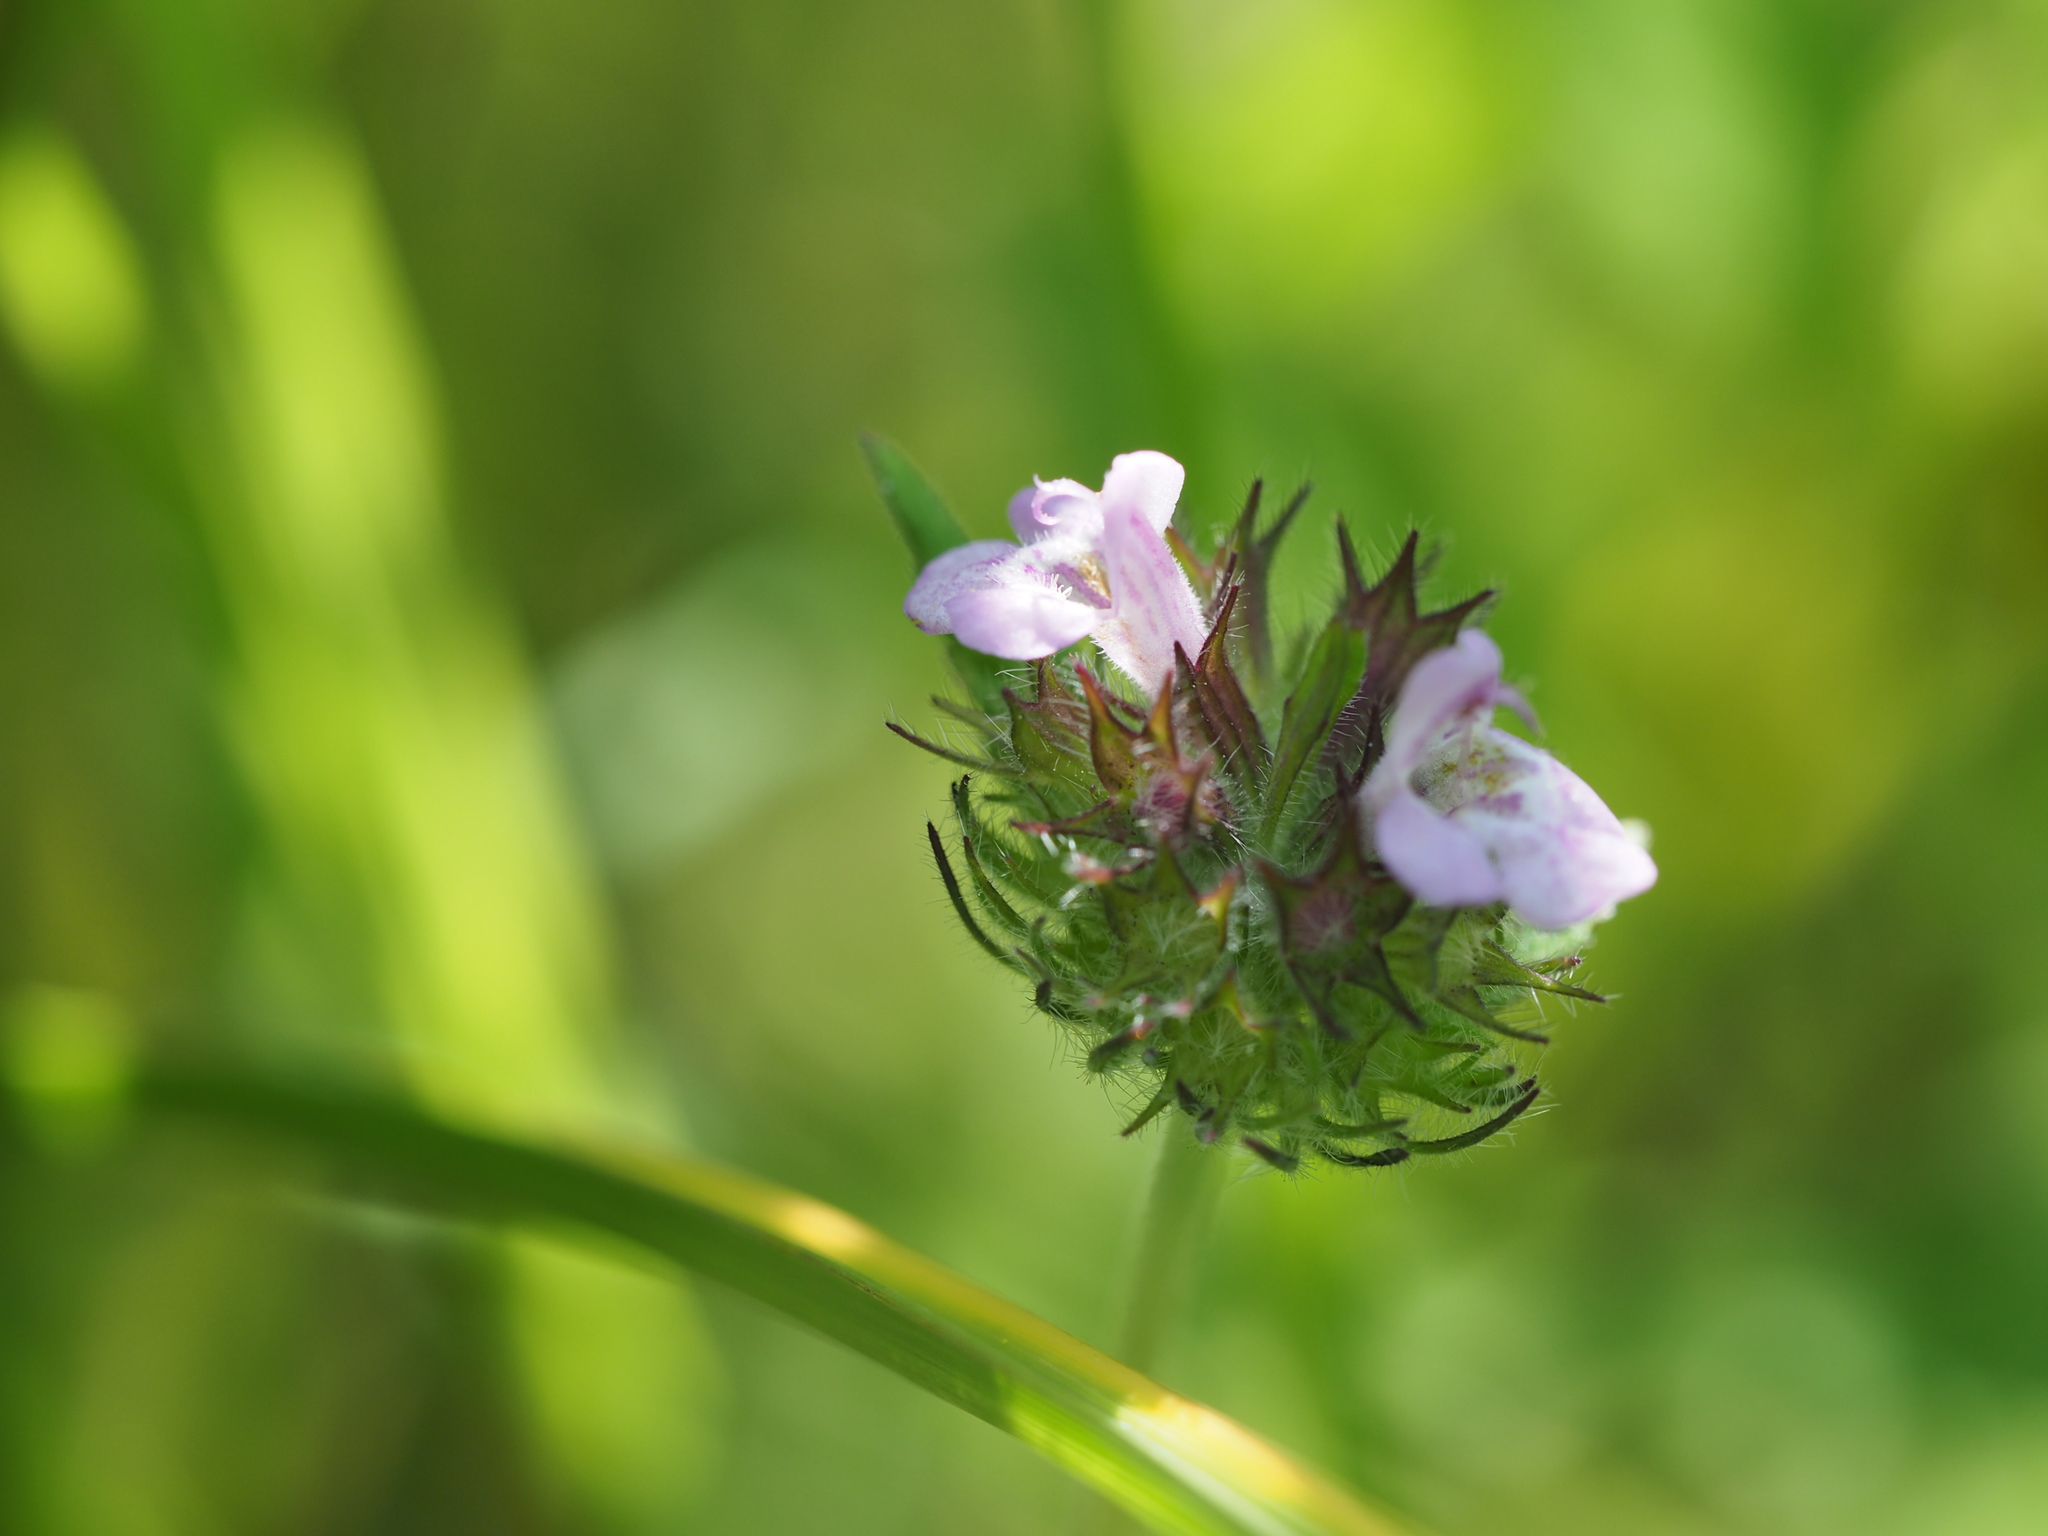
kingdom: Plantae
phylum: Tracheophyta
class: Magnoliopsida
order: Lamiales
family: Acanthaceae
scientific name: Acanthaceae
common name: Acanthaceae
